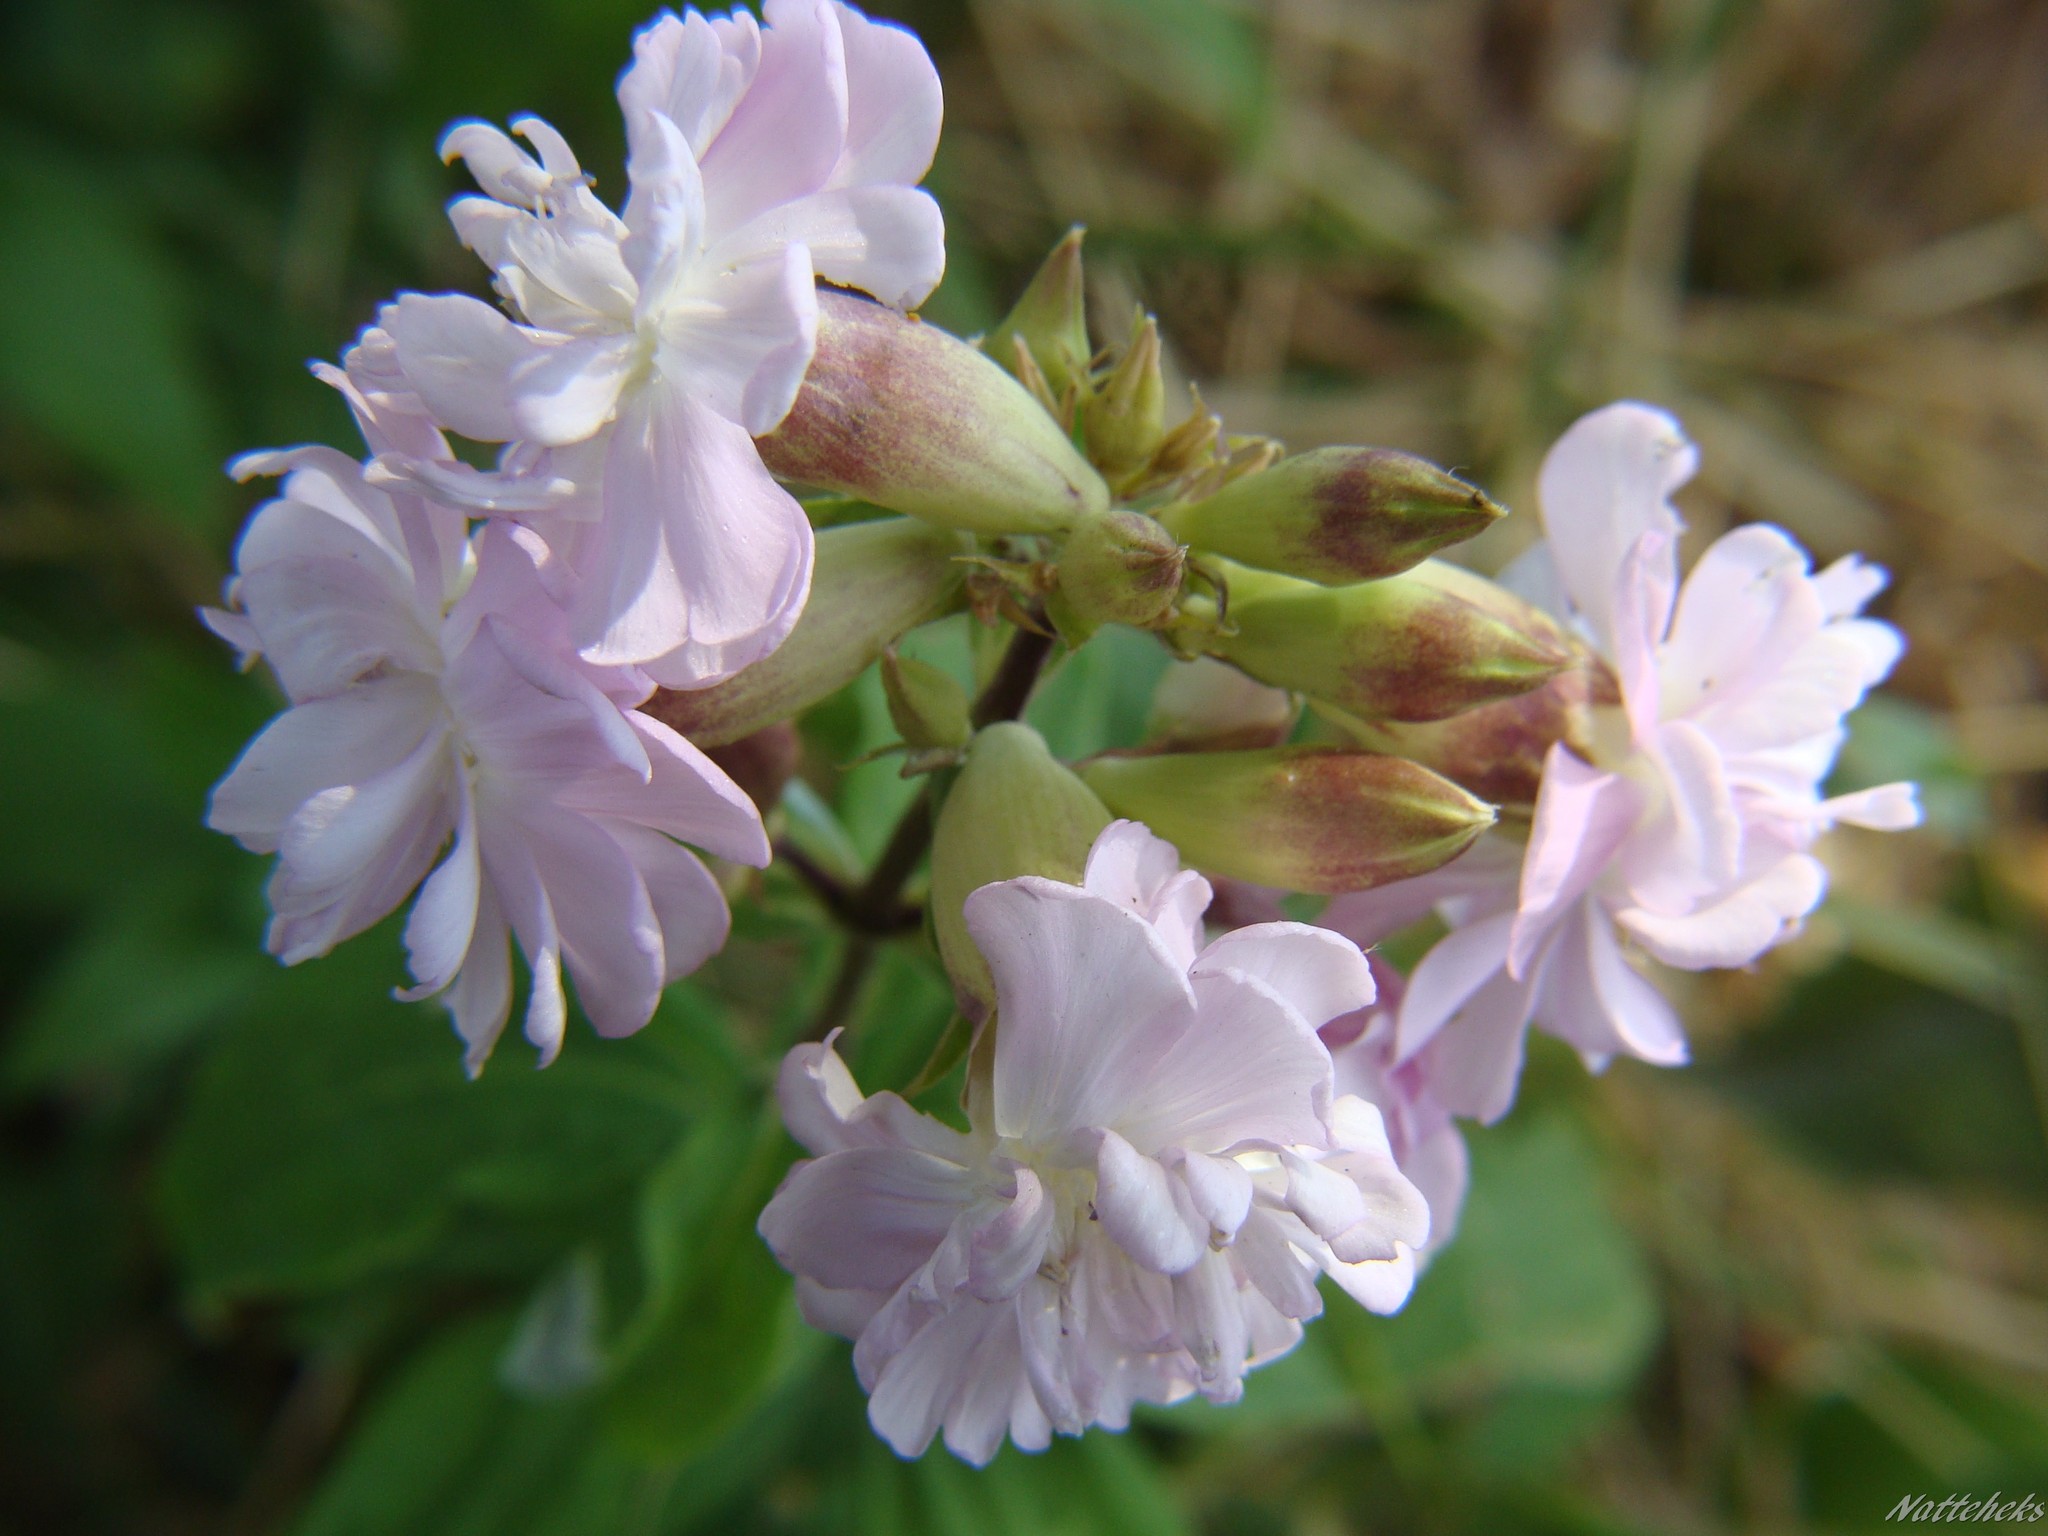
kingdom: Plantae
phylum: Tracheophyta
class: Magnoliopsida
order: Caryophyllales
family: Caryophyllaceae
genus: Saponaria
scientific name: Saponaria officinalis
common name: Soapwort
